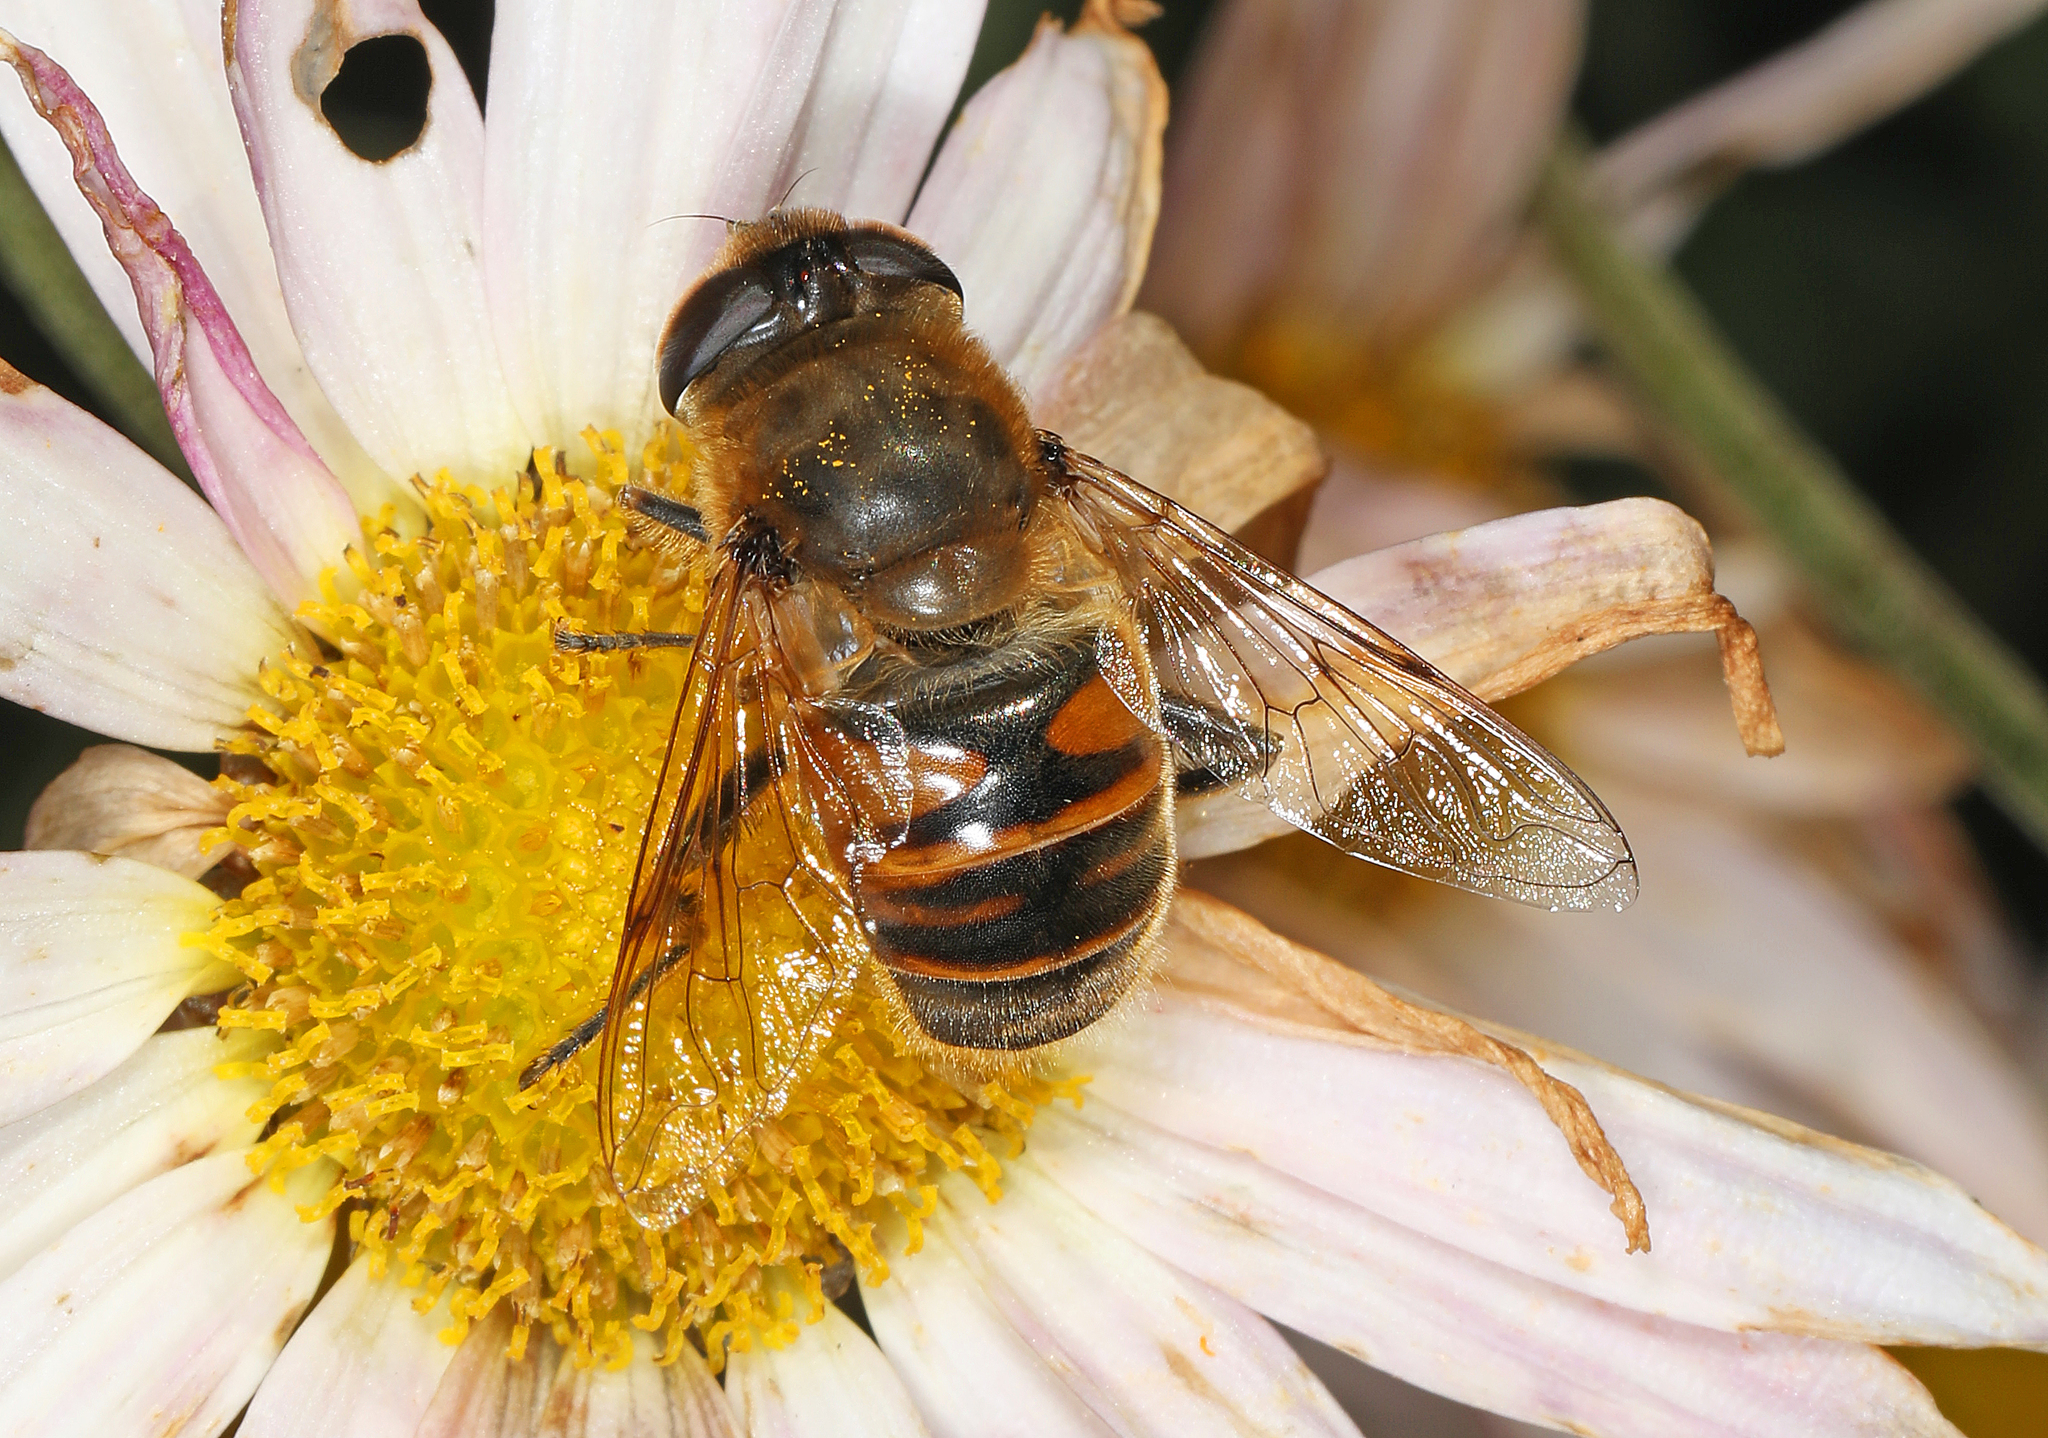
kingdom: Animalia
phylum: Arthropoda
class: Insecta
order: Diptera
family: Syrphidae
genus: Eristalis
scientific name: Eristalis tenax
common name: Drone fly
